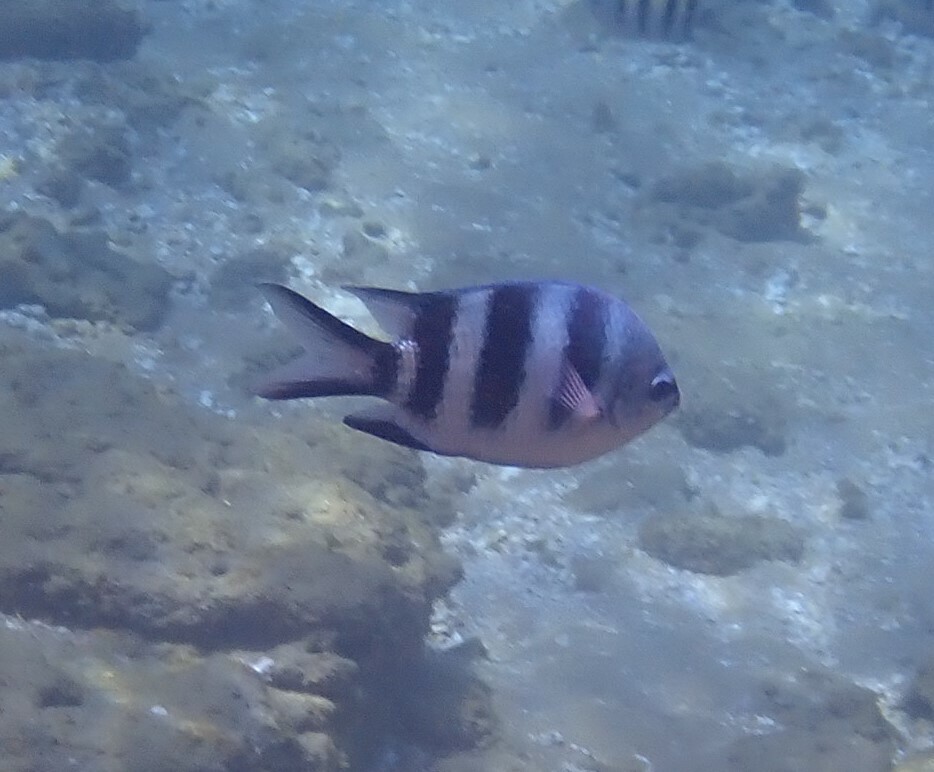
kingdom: Animalia
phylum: Chordata
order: Perciformes
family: Pomacentridae
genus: Abudefduf
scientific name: Abudefduf natalensis
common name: Natal sergeant
